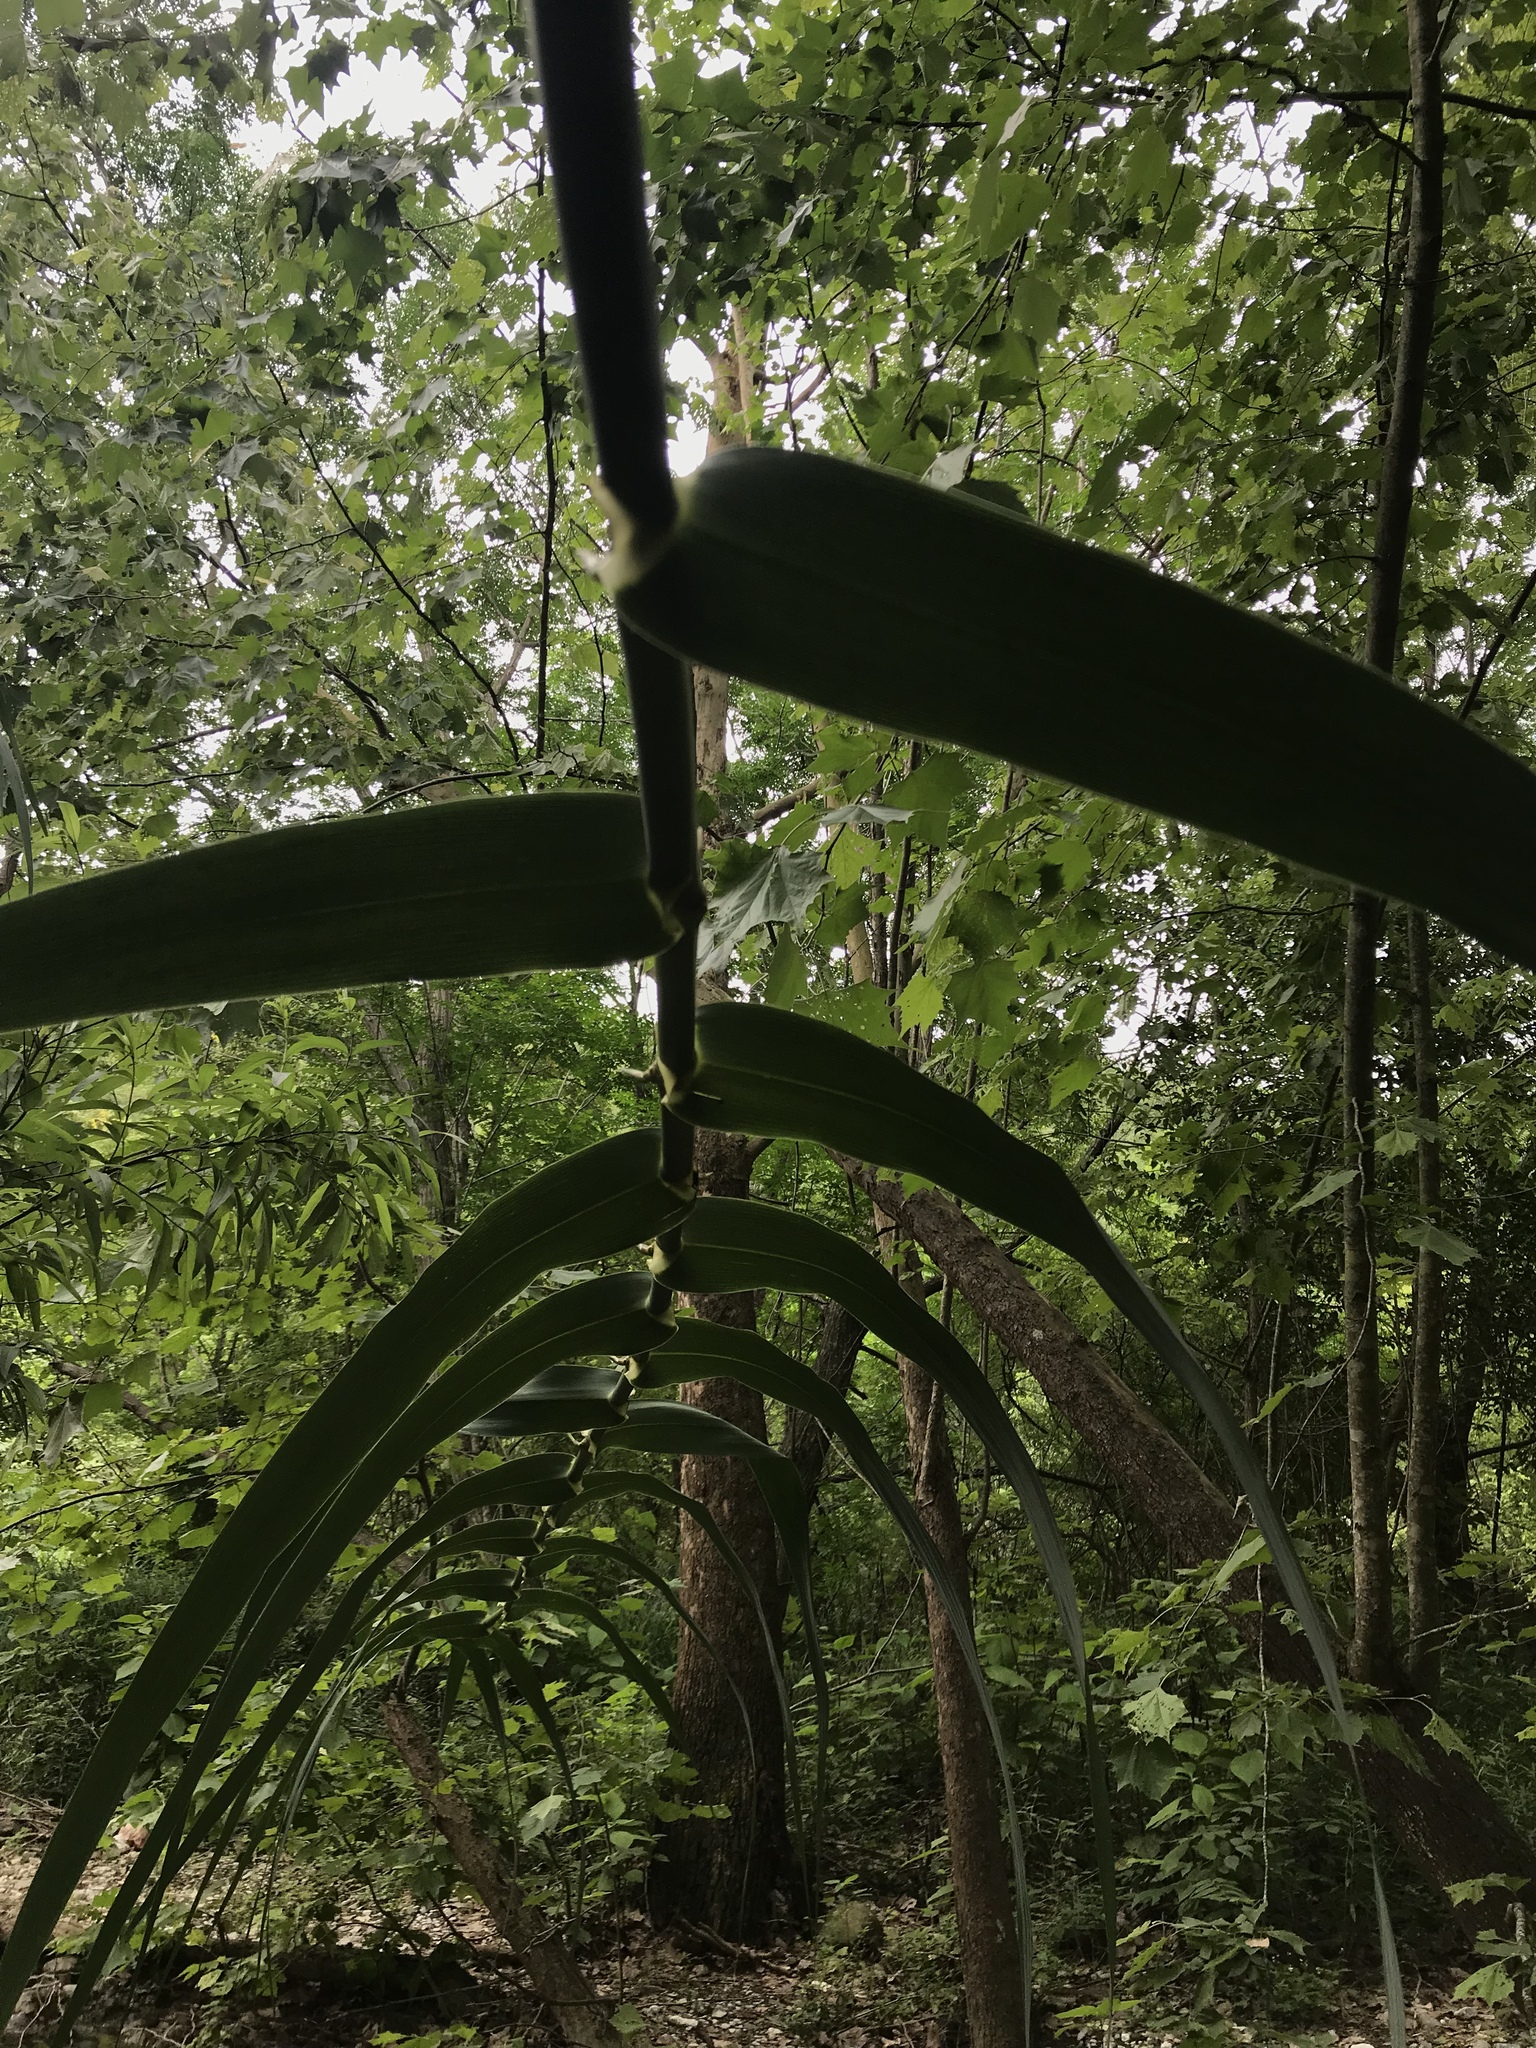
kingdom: Plantae
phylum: Tracheophyta
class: Liliopsida
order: Poales
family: Poaceae
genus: Arundo
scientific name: Arundo donax
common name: Giant reed
